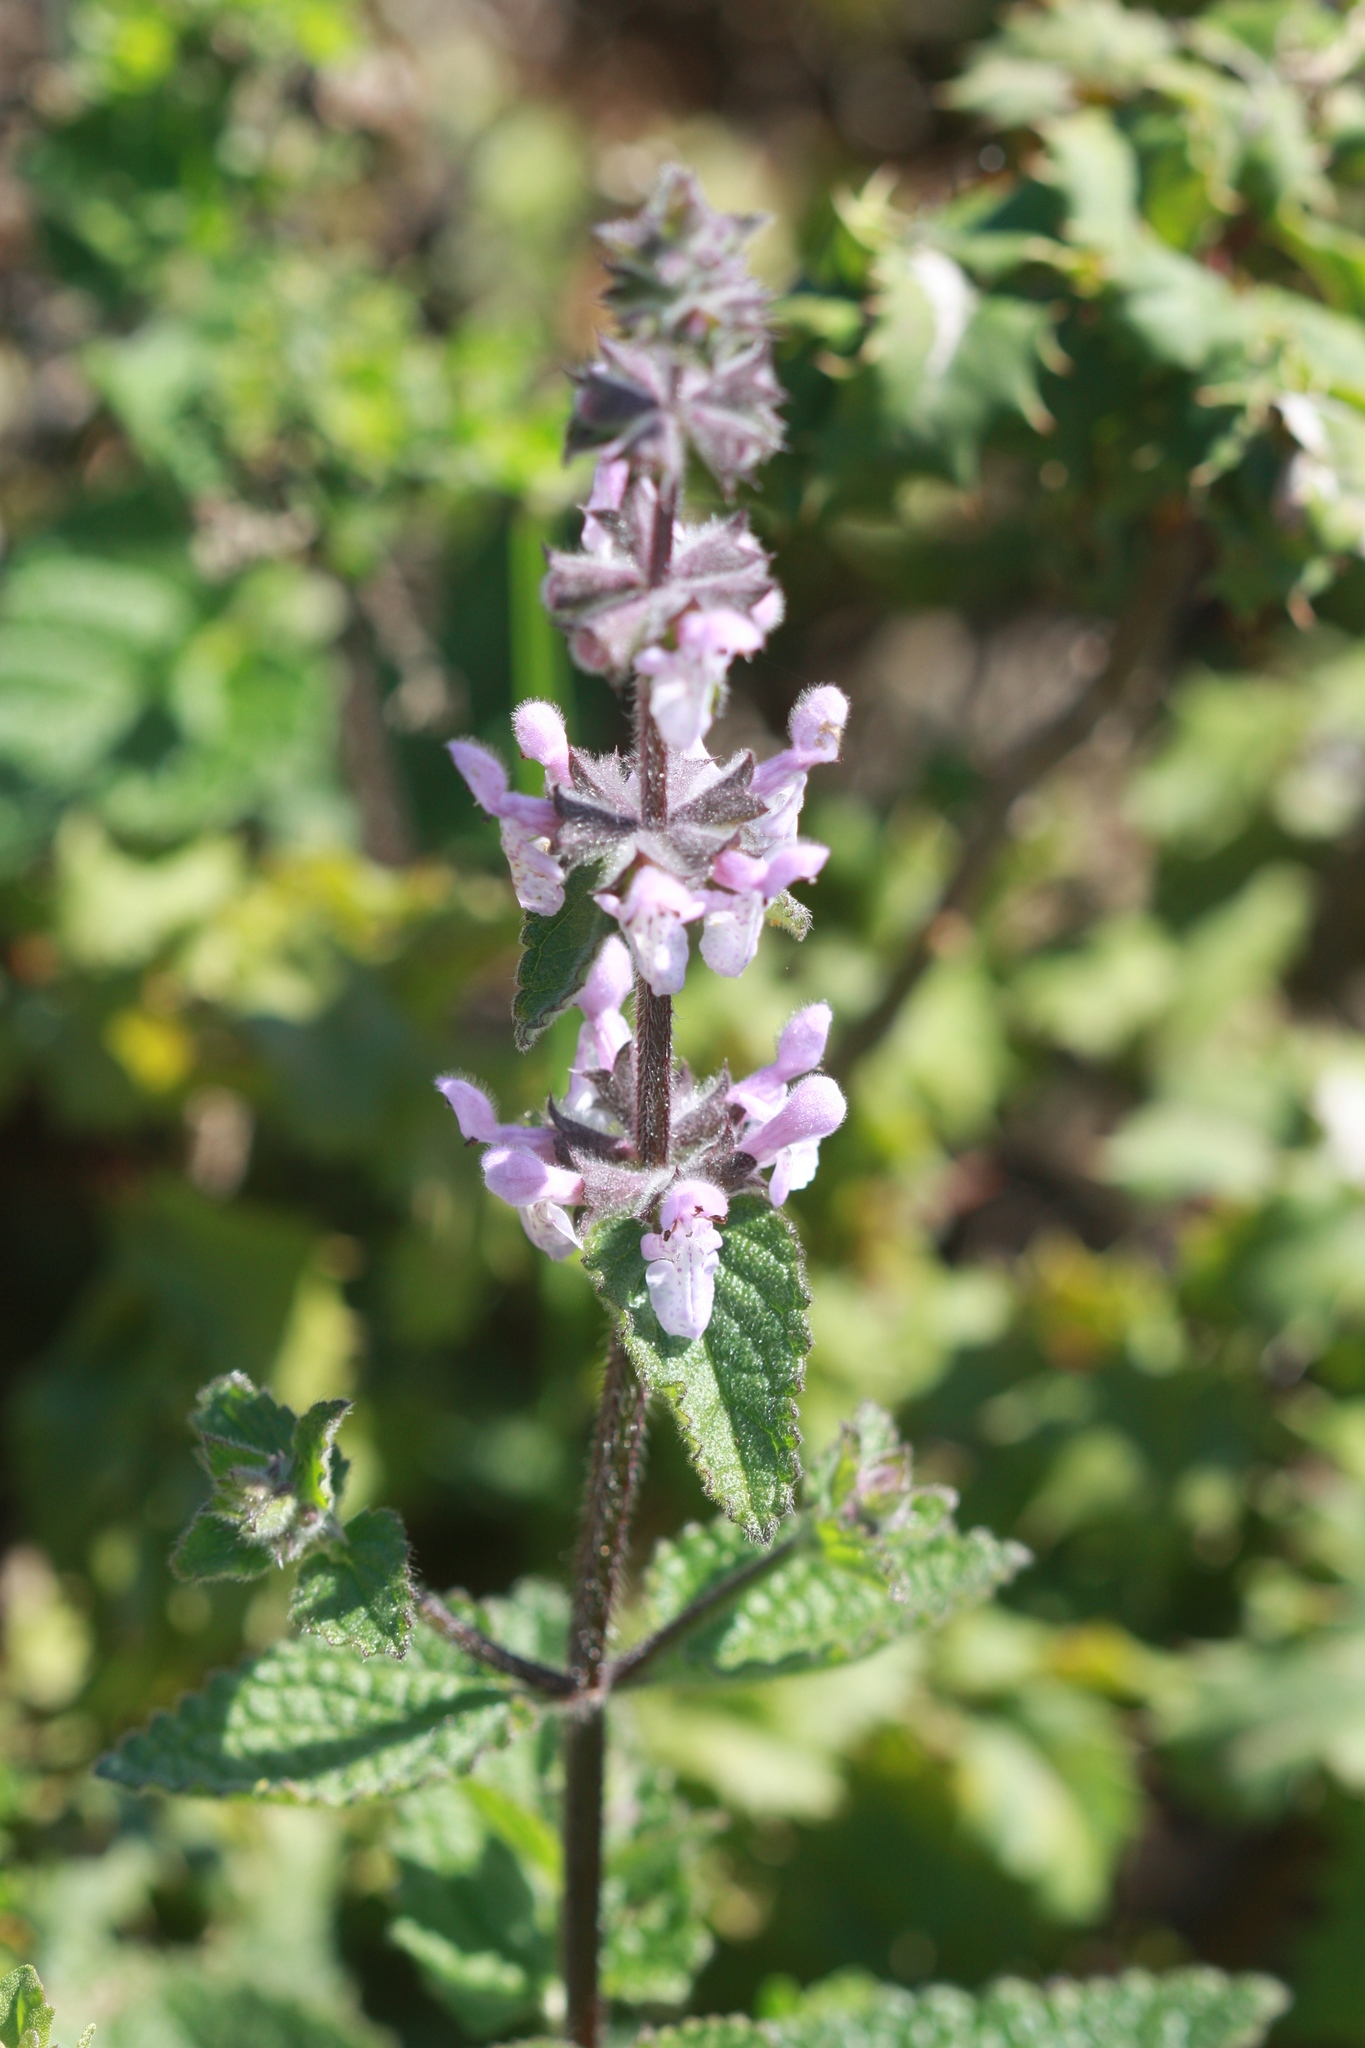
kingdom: Plantae
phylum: Tracheophyta
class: Magnoliopsida
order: Lamiales
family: Lamiaceae
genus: Stachys
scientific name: Stachys bullata
